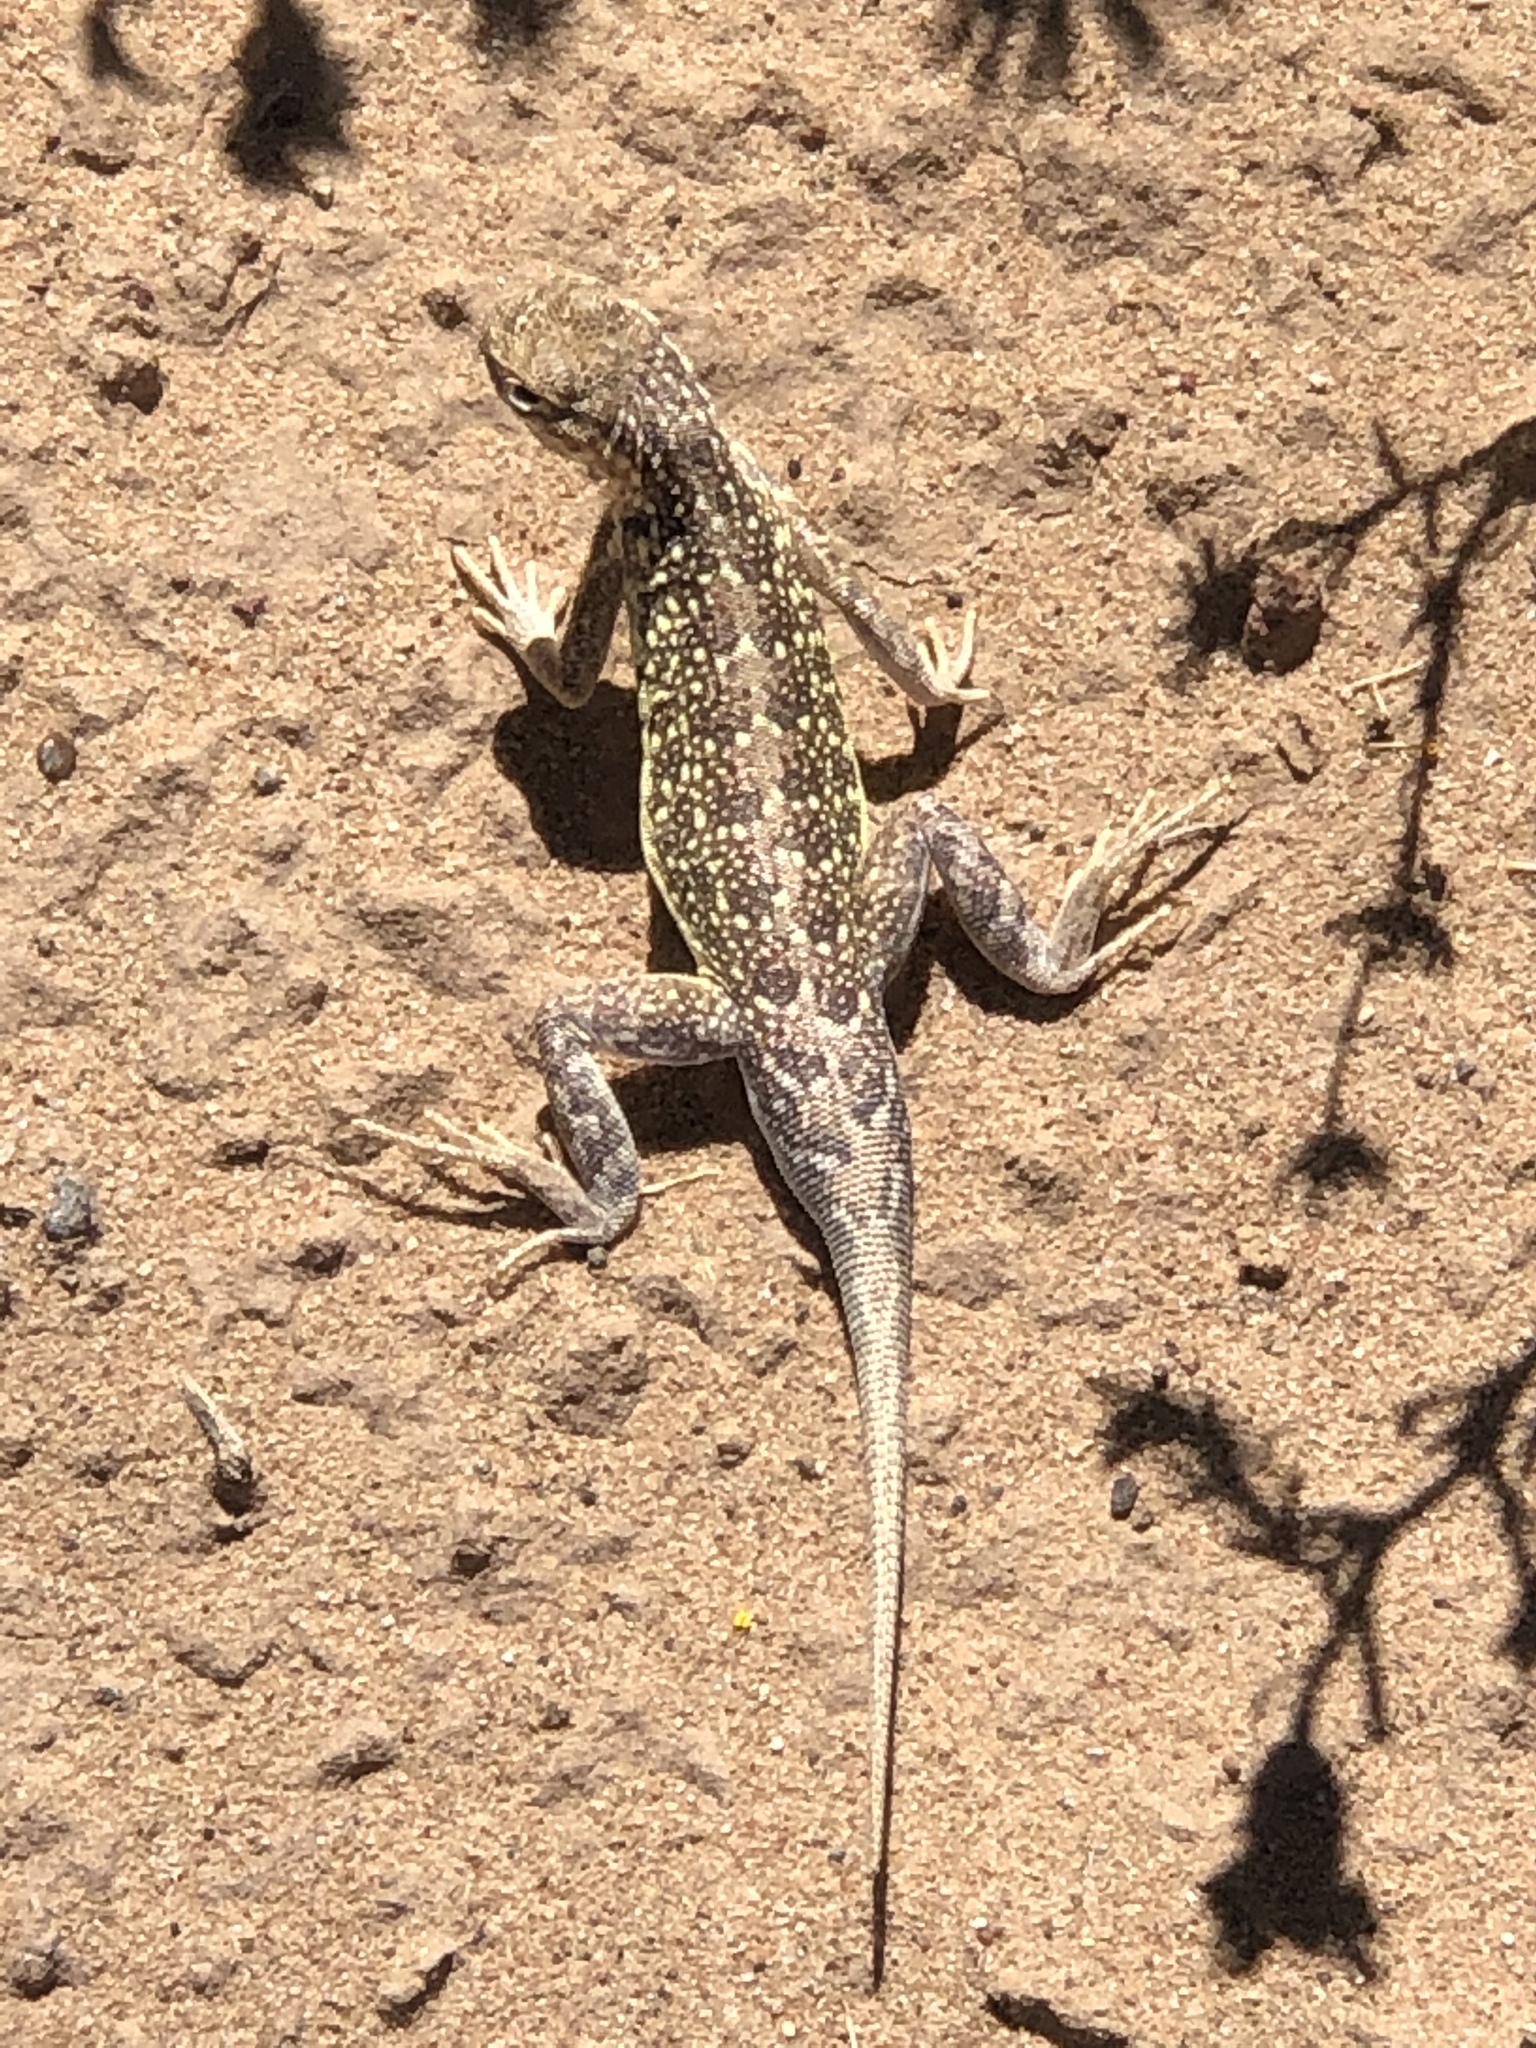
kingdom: Animalia
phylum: Chordata
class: Squamata
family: Phrynosomatidae
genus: Holbrookia
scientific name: Holbrookia maculata
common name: Lesser earless lizard
